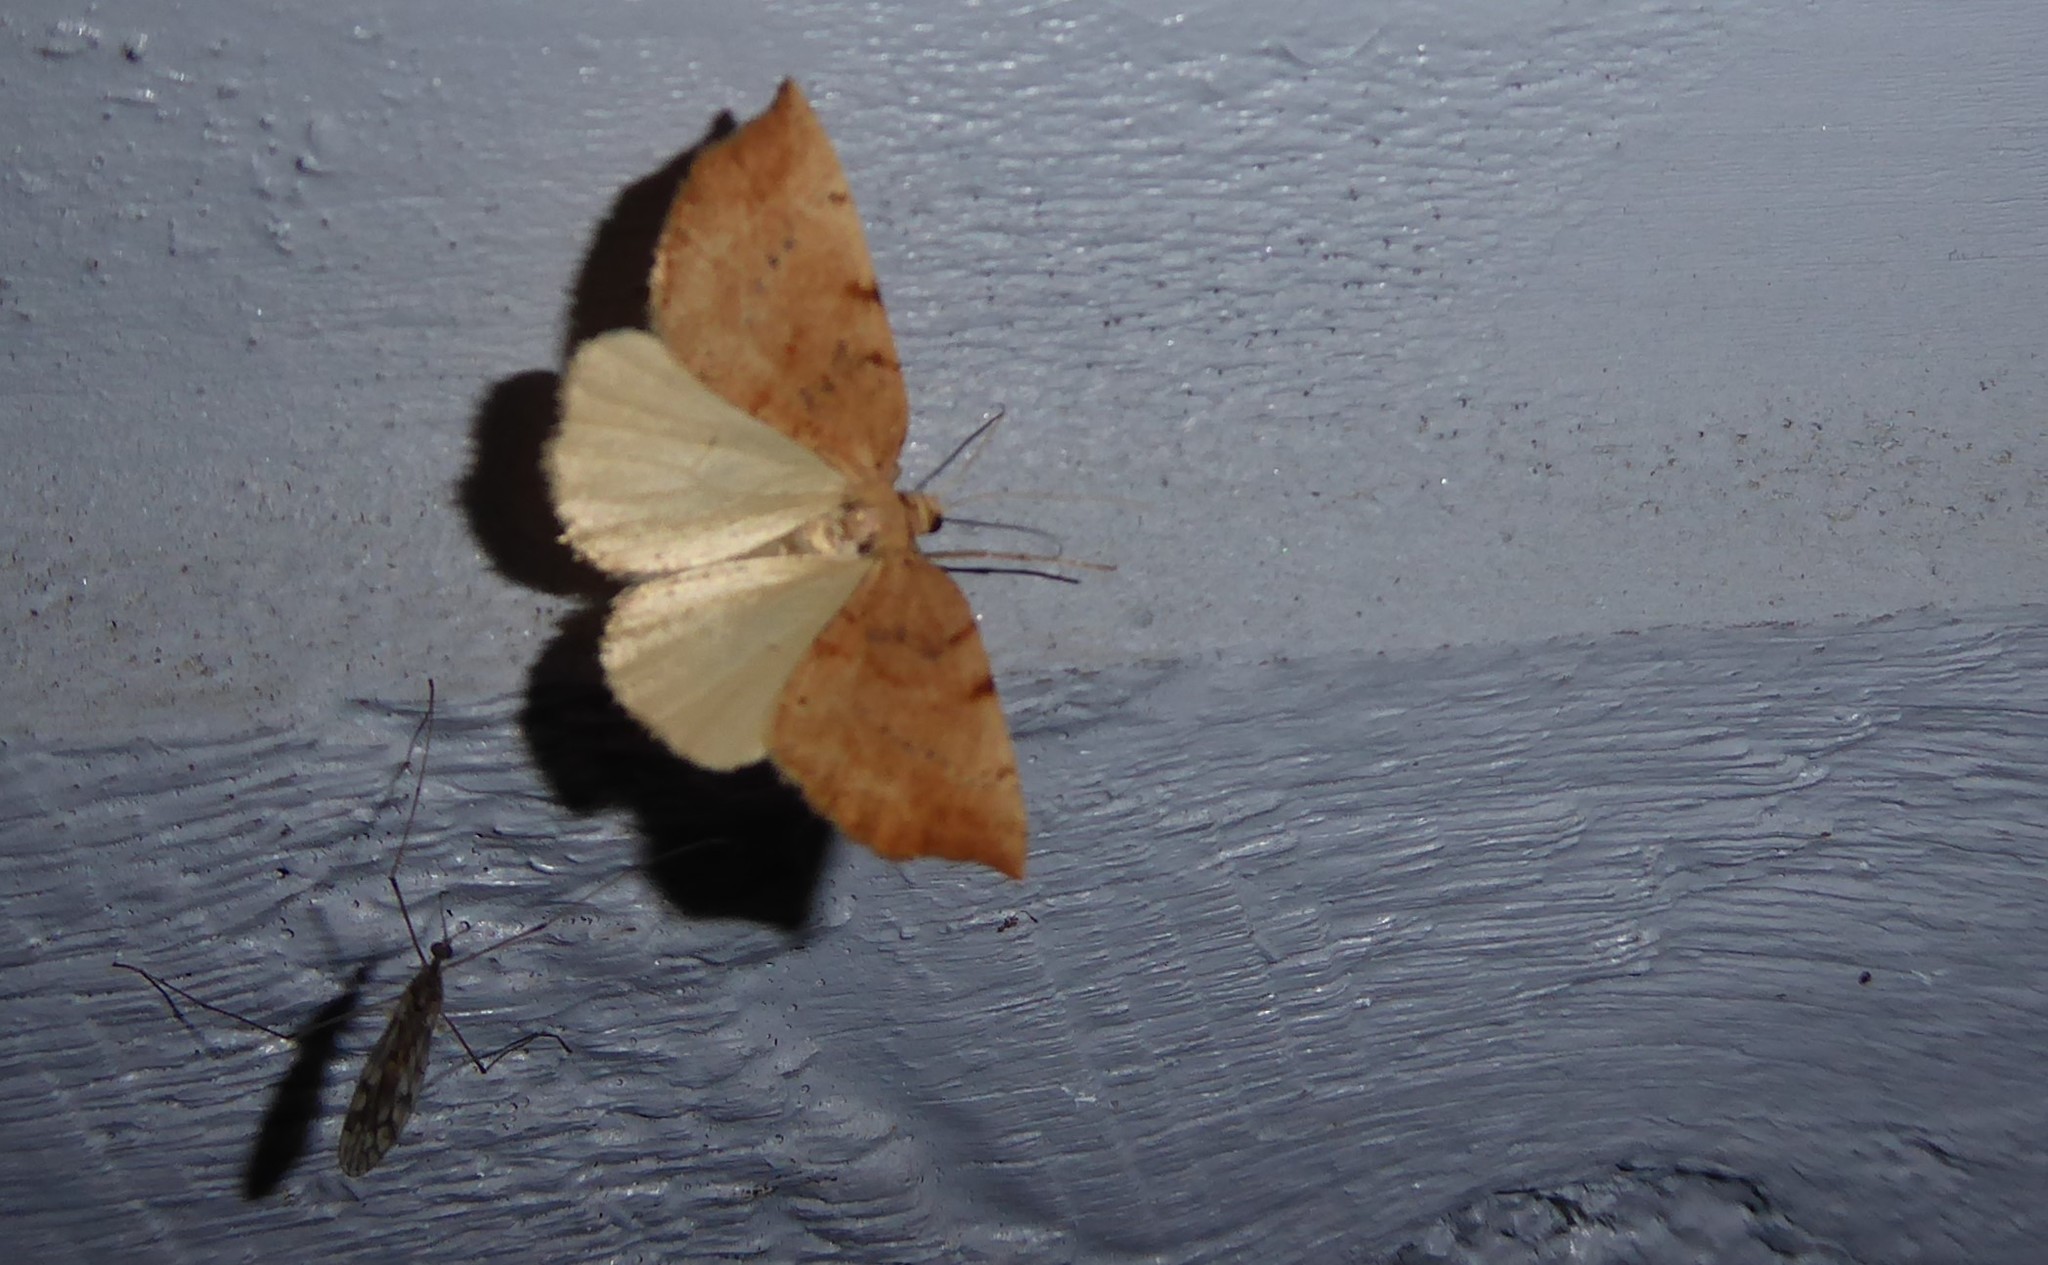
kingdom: Animalia
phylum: Arthropoda
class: Insecta
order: Lepidoptera
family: Geometridae
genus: Sestra
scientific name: Sestra humeraria
